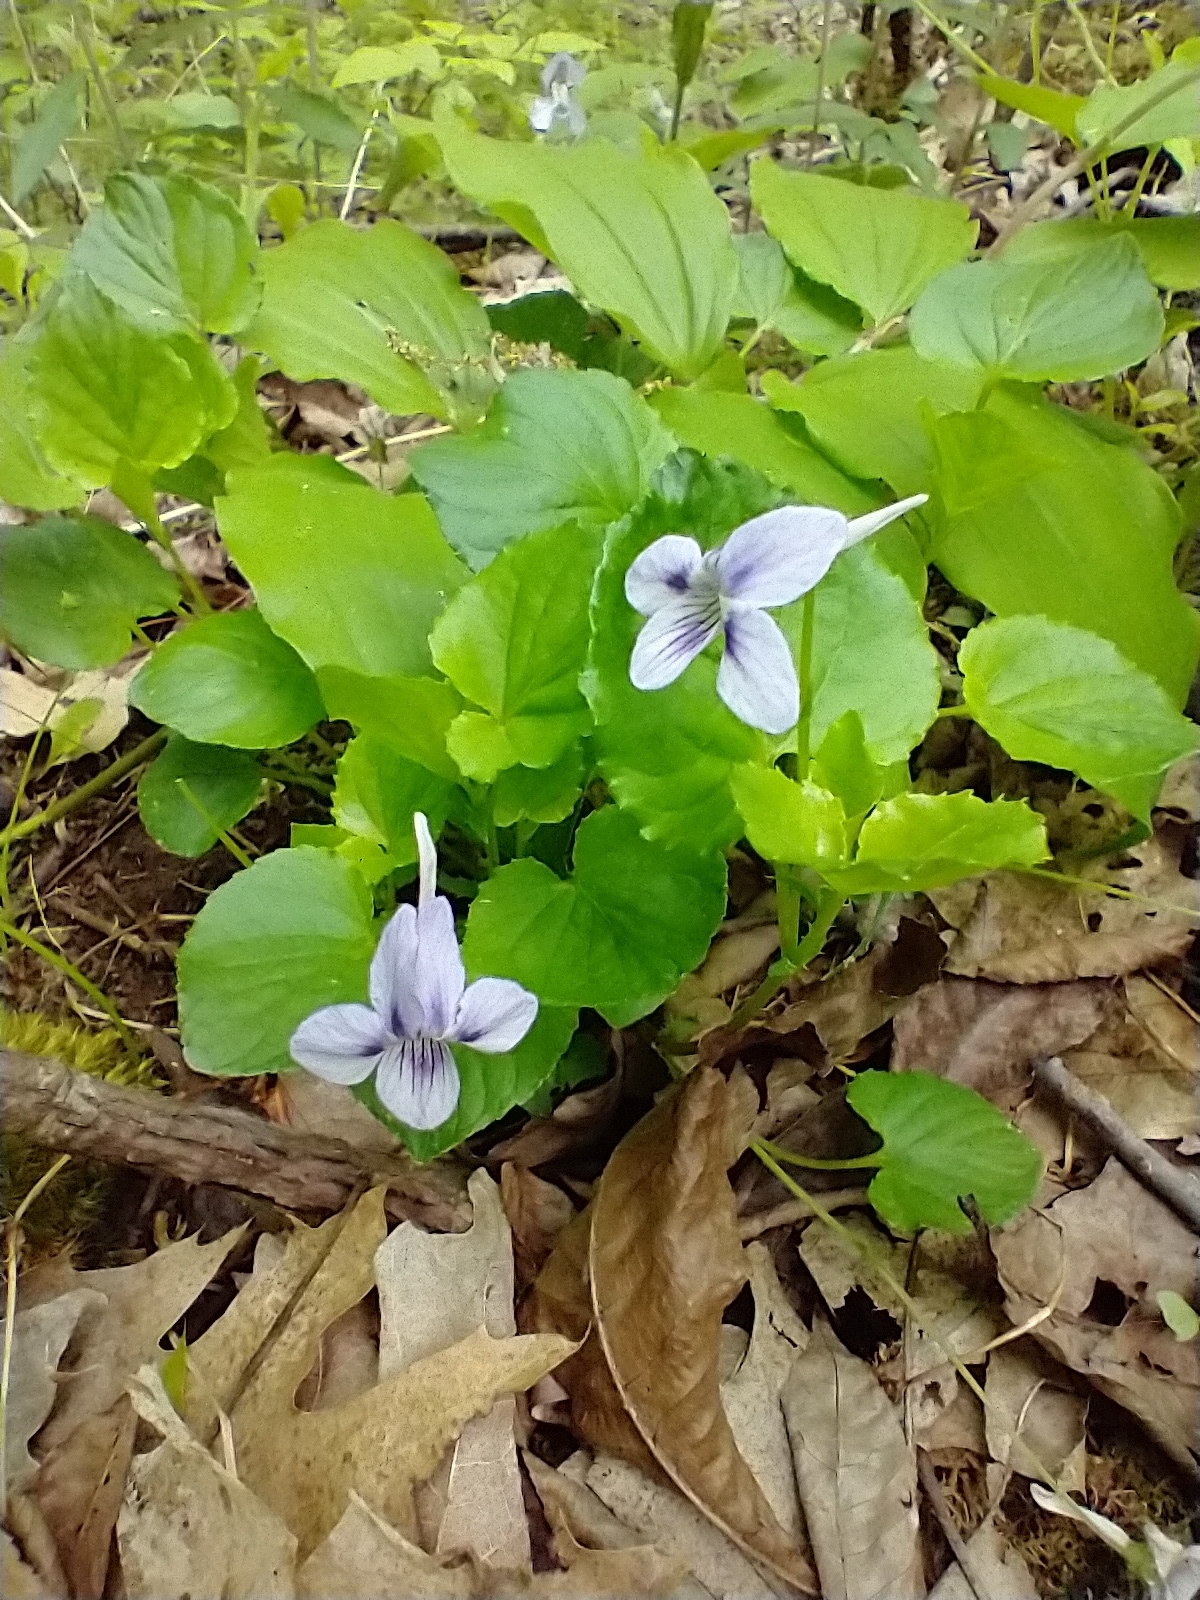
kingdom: Plantae
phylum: Tracheophyta
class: Magnoliopsida
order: Malpighiales
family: Violaceae
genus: Viola
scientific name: Viola rostrata
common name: Long-spur violet
